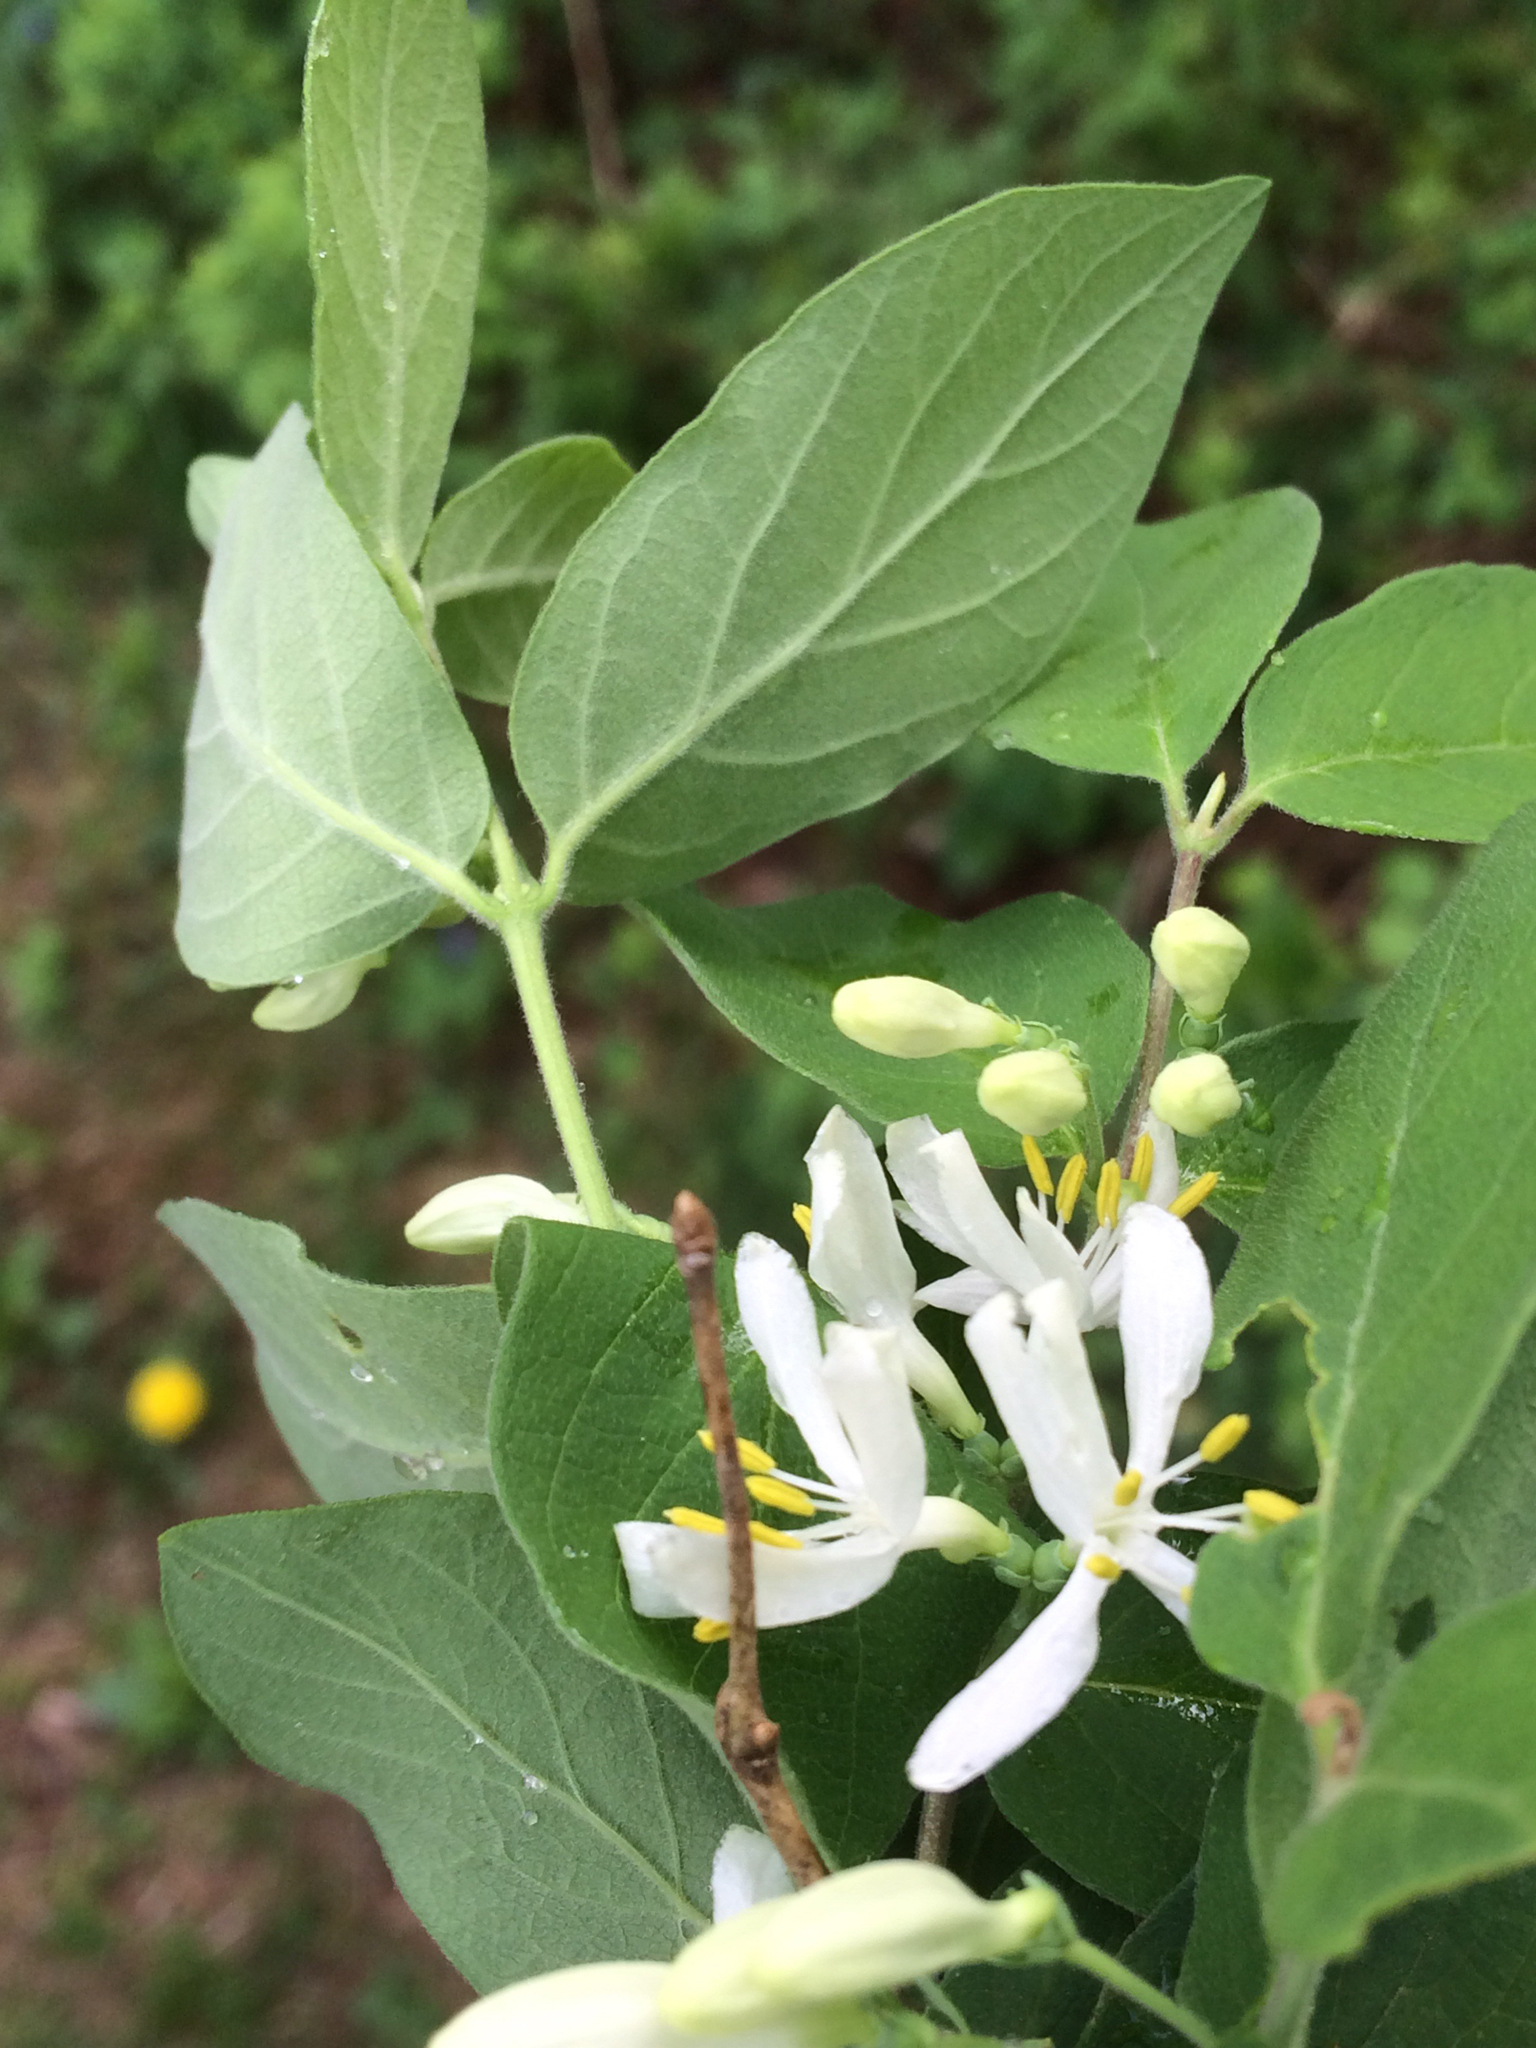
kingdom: Plantae
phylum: Tracheophyta
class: Magnoliopsida
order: Dipsacales
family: Caprifoliaceae
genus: Lonicera
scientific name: Lonicera morrowii
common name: Morrow's honeysuckle
